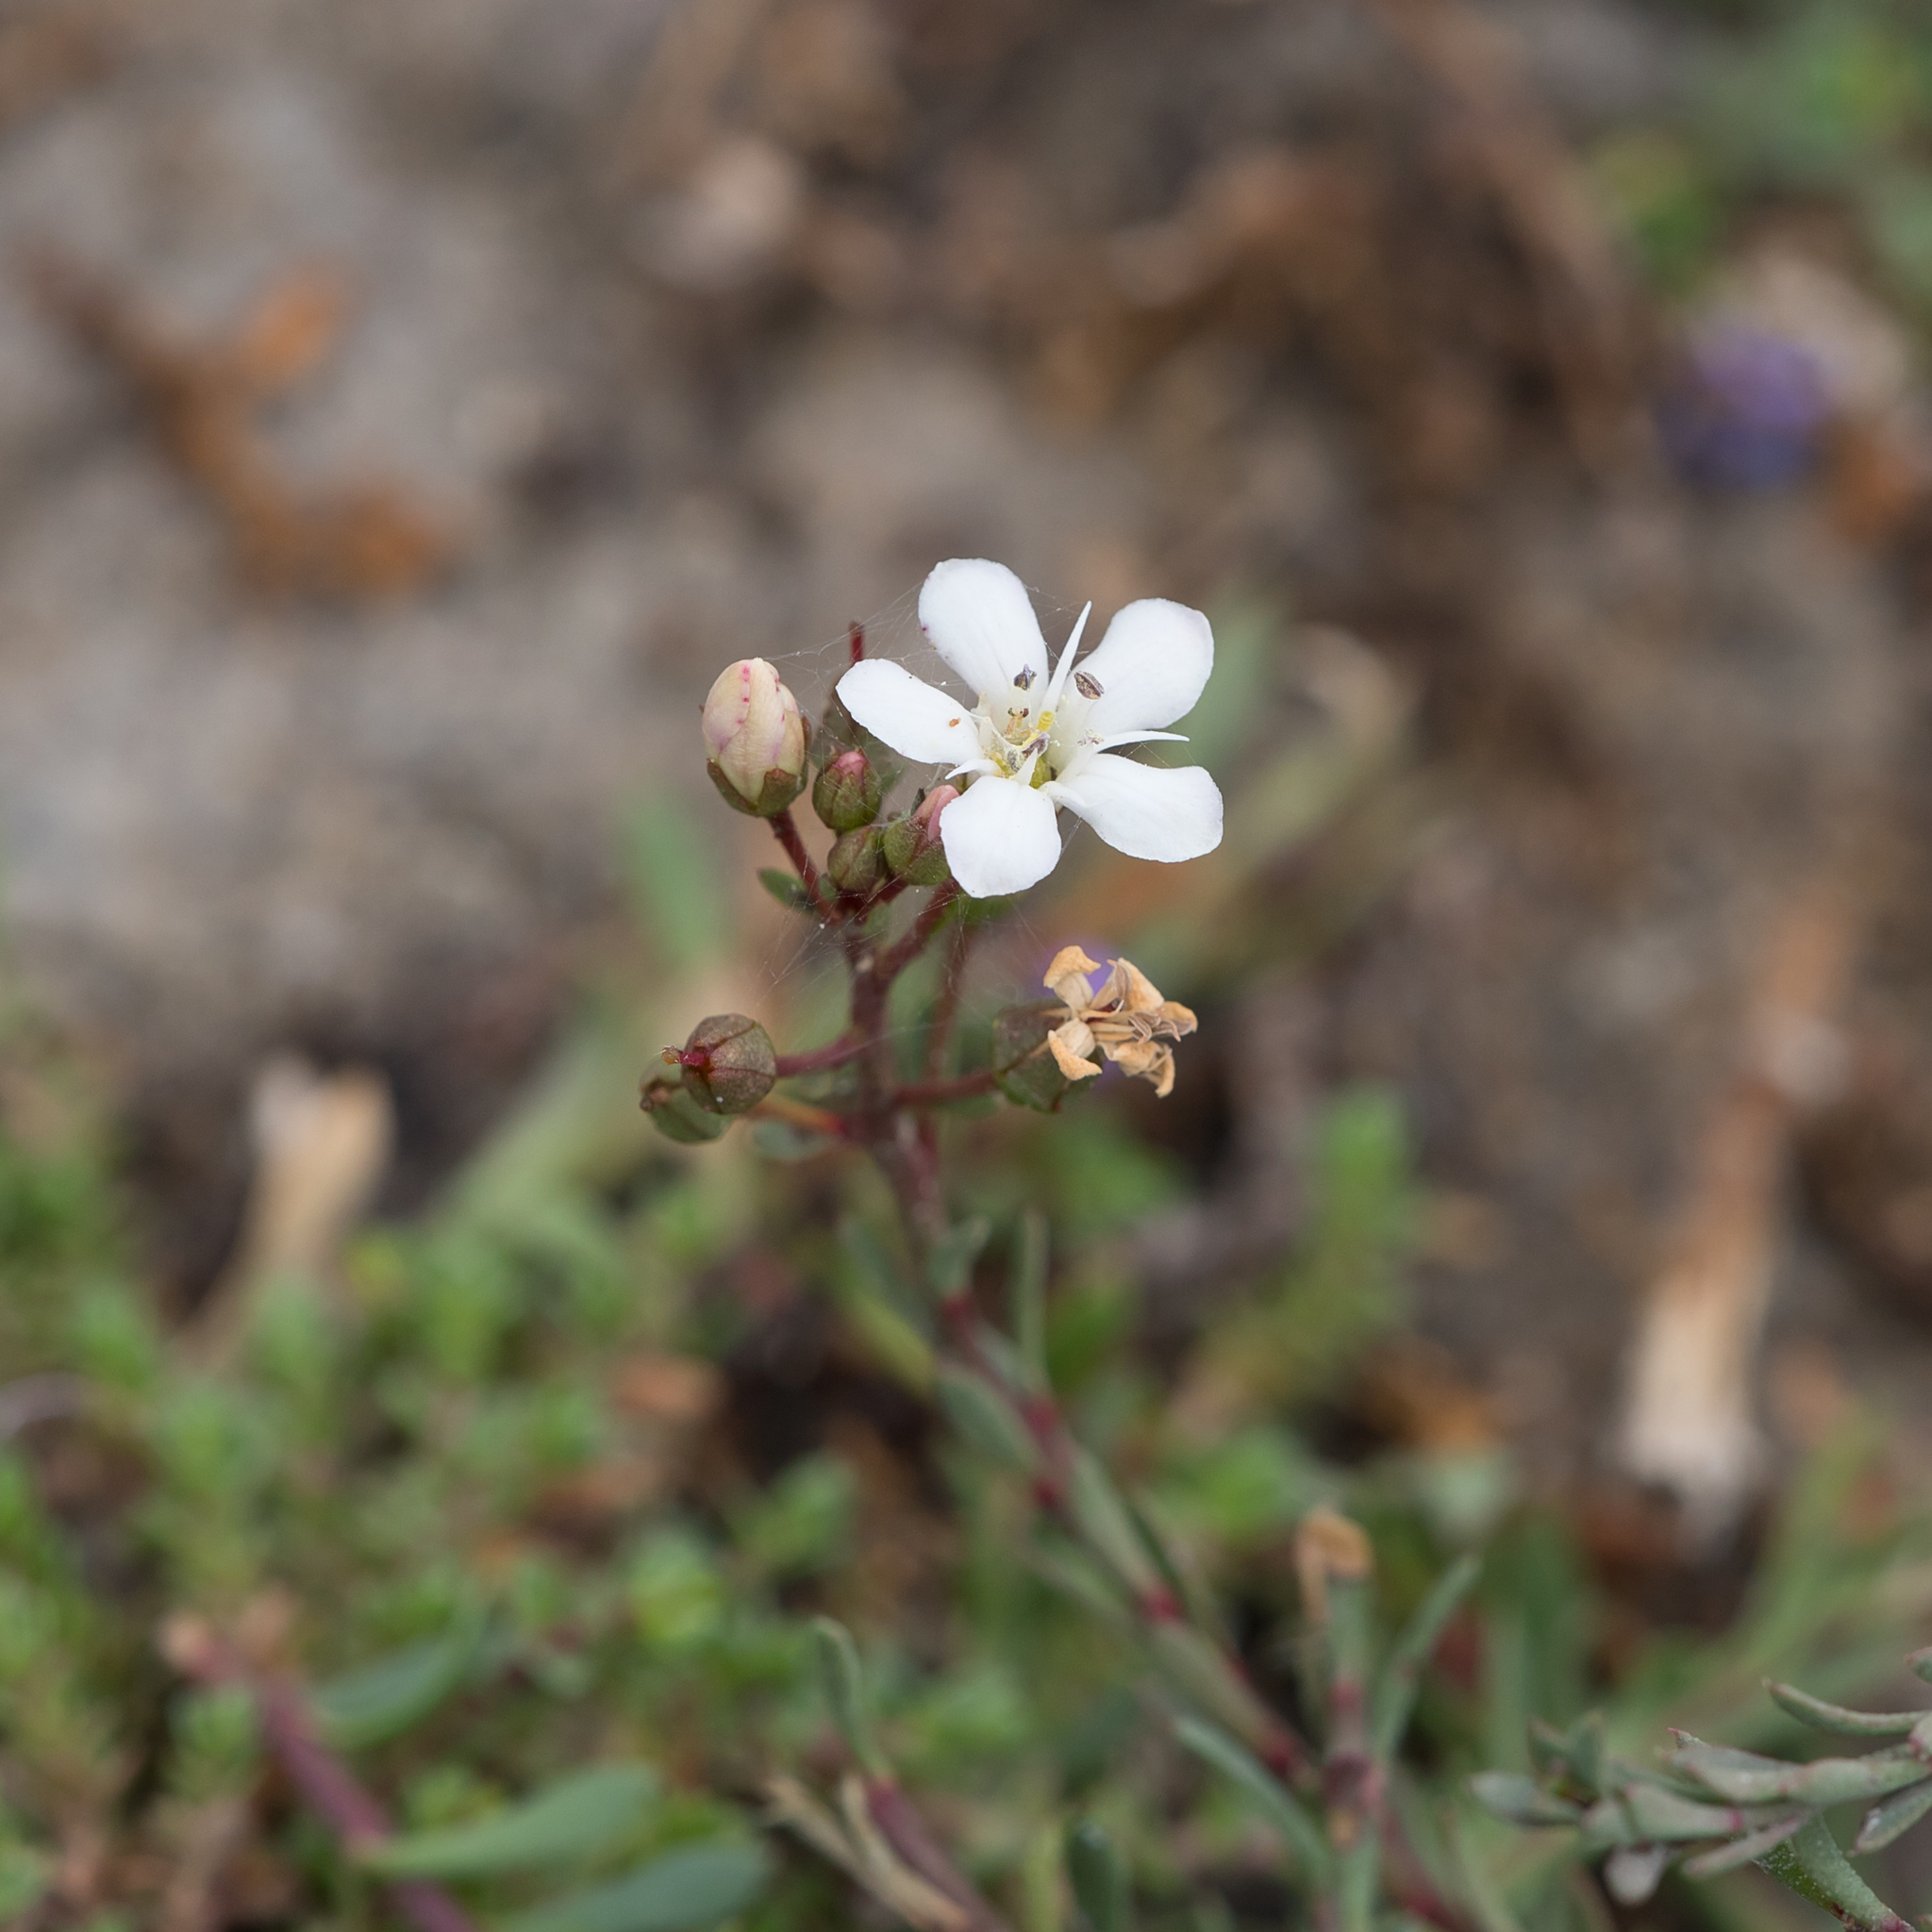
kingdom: Plantae
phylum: Tracheophyta
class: Magnoliopsida
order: Ericales
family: Primulaceae
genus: Samolus
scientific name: Samolus repens
